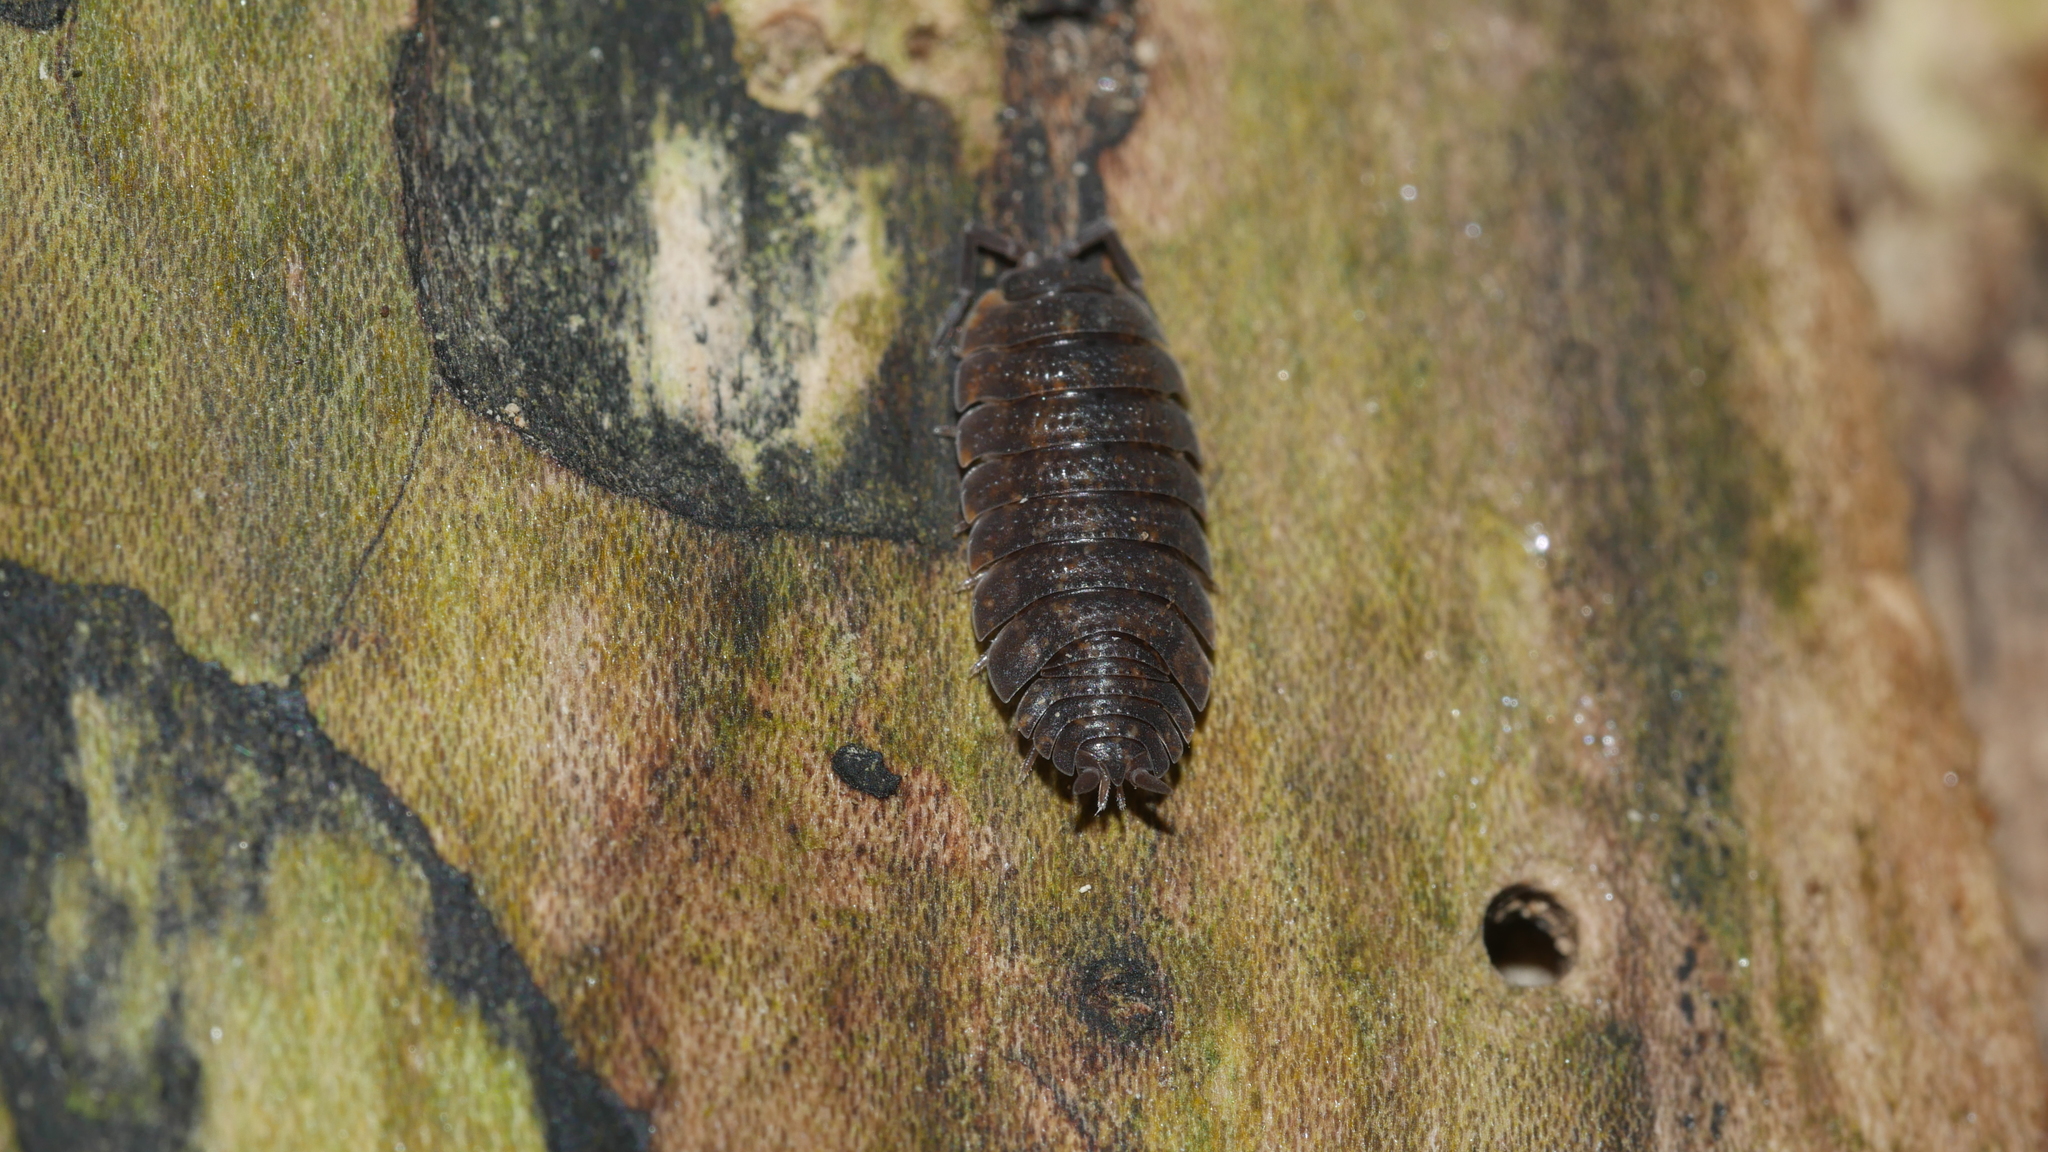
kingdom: Animalia
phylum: Arthropoda
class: Malacostraca
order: Isopoda
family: Porcellionidae
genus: Porcellio
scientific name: Porcellio scaber
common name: Common rough woodlouse
